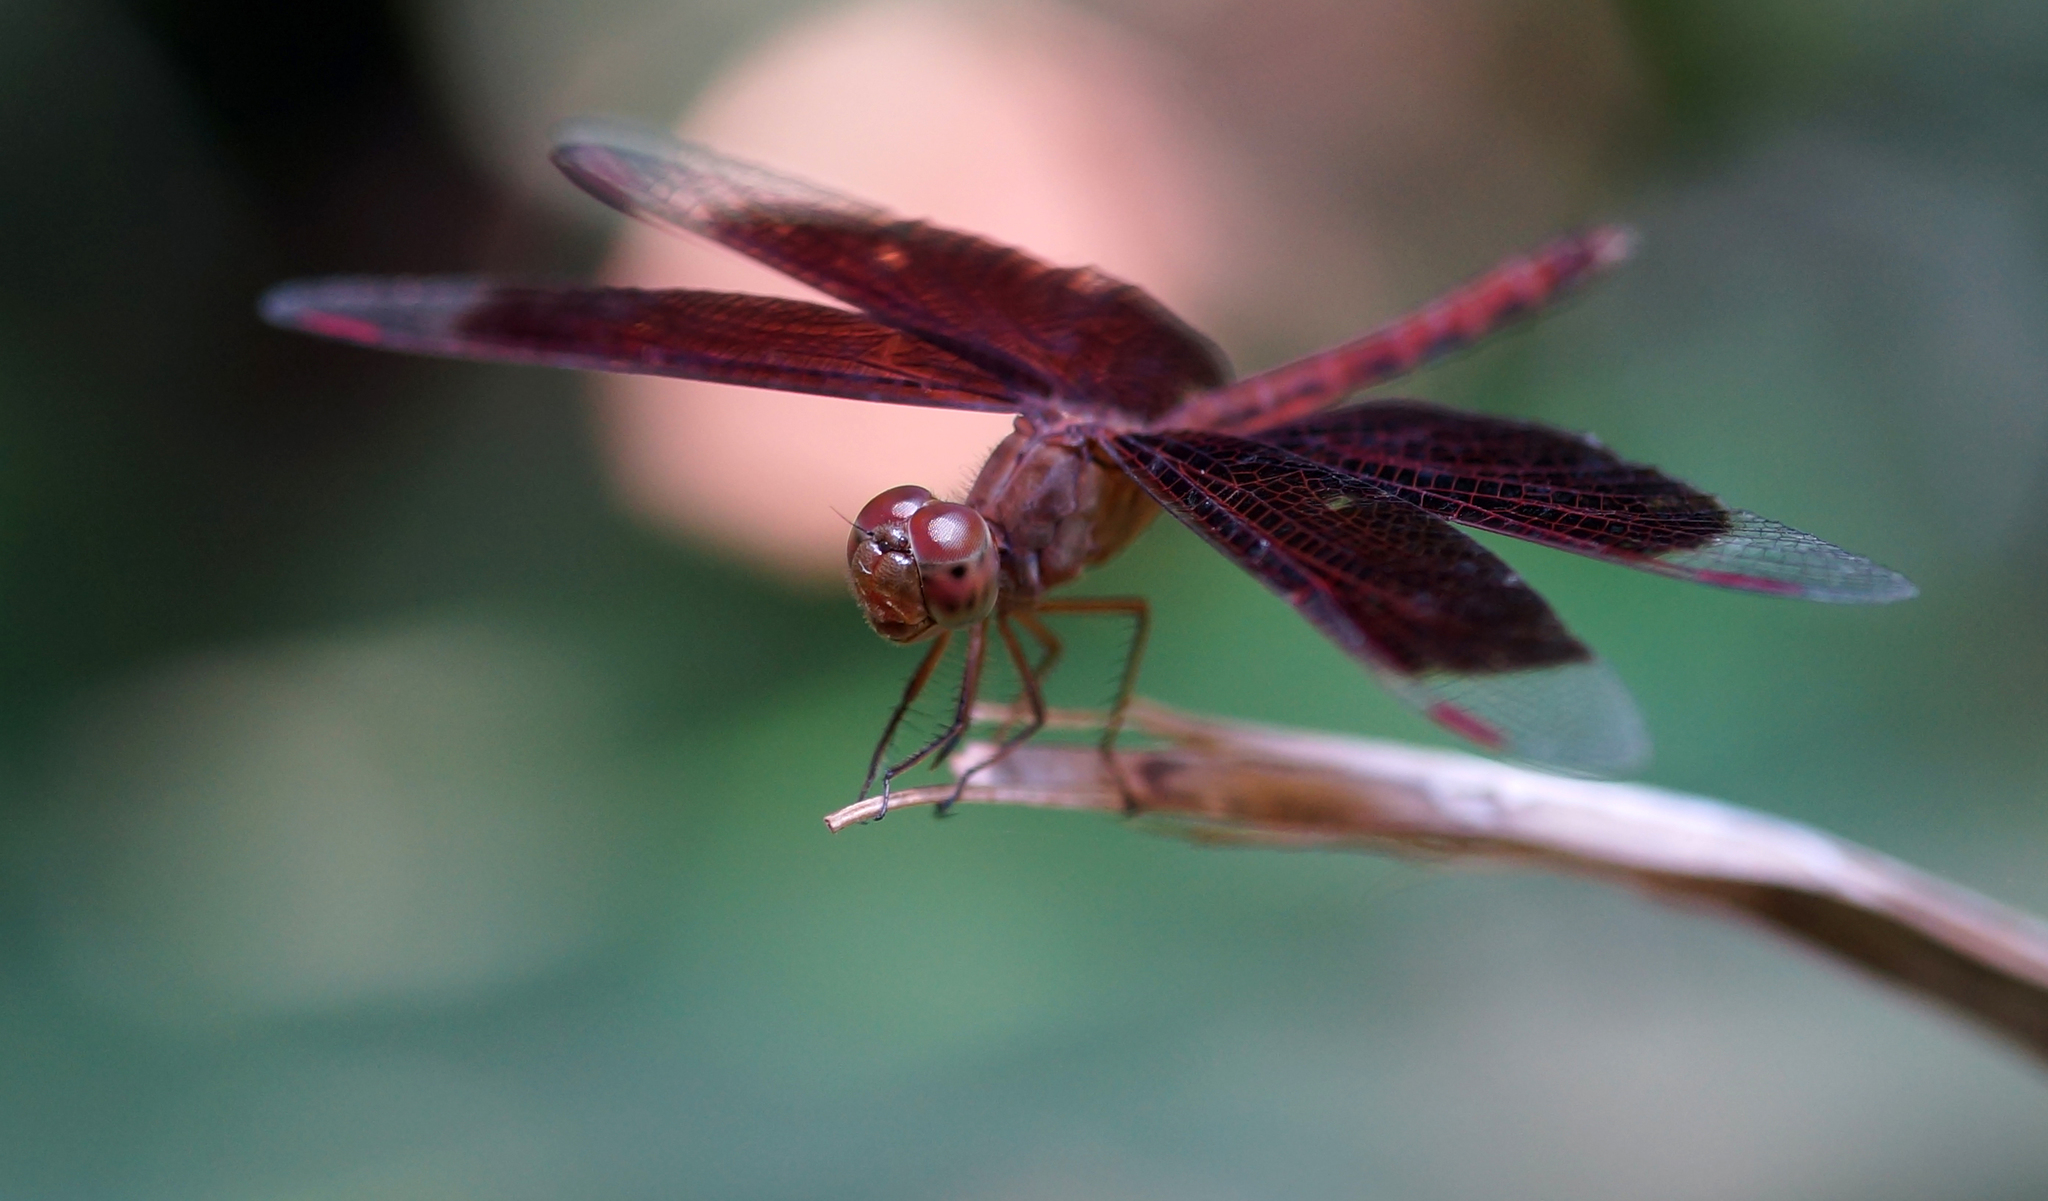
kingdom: Animalia
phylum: Arthropoda
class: Insecta
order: Odonata
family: Libellulidae
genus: Neurothemis
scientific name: Neurothemis fluctuans
